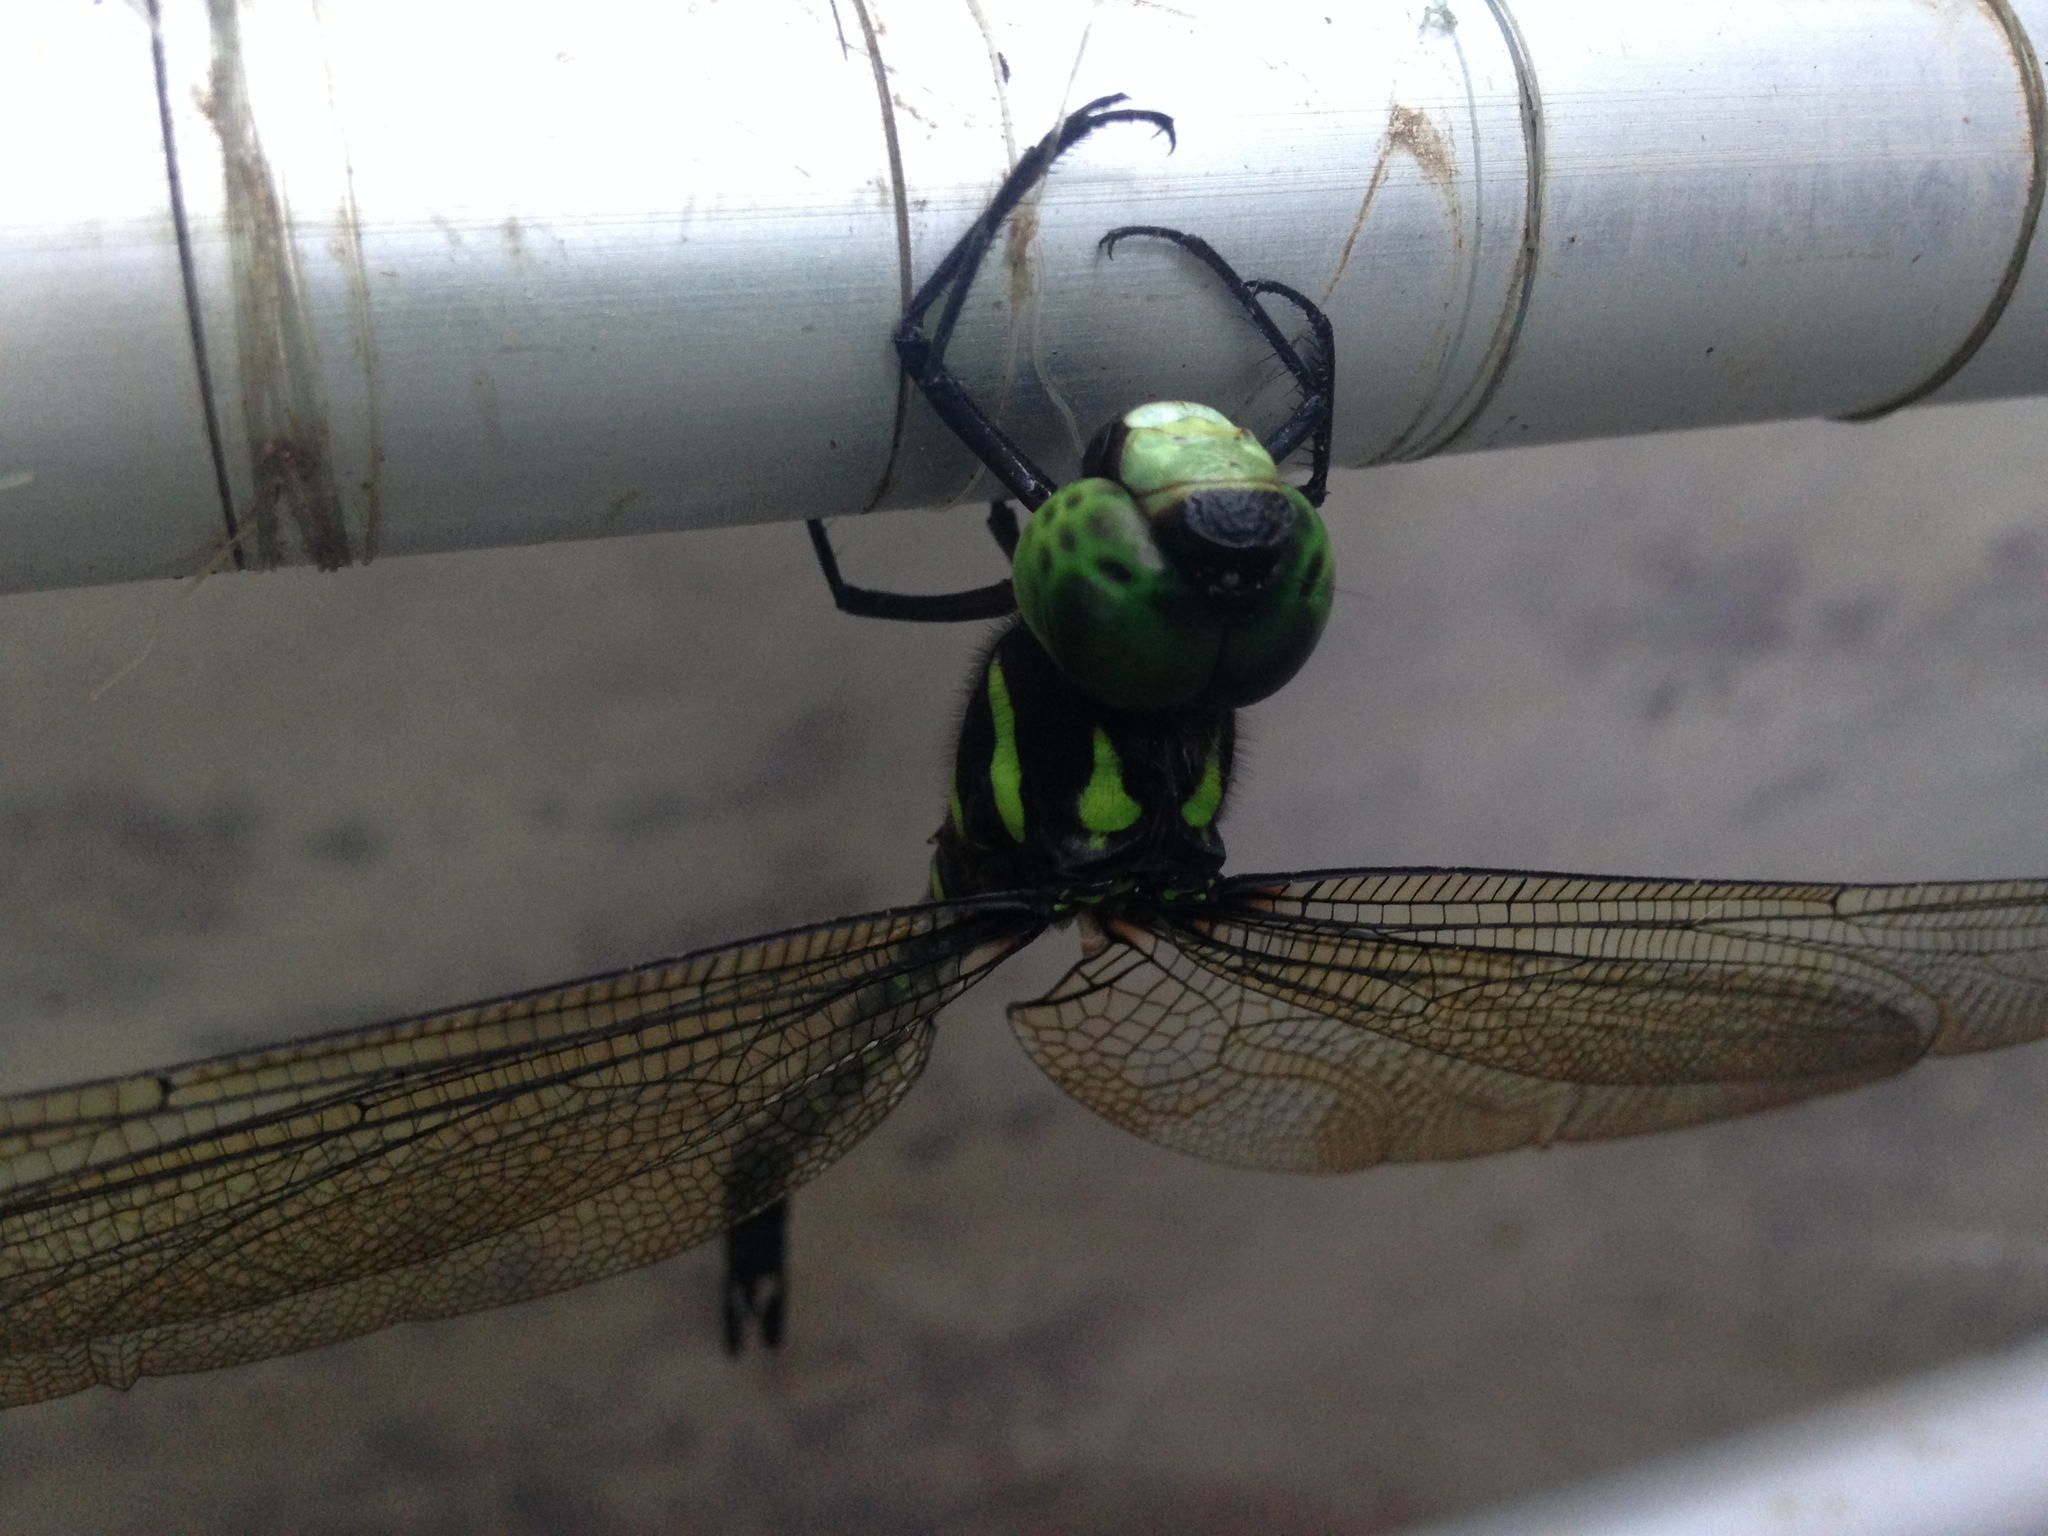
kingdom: Animalia
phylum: Arthropoda
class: Insecta
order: Odonata
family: Aeshnidae
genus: Indaeschna
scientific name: Indaeschna grubaueri
